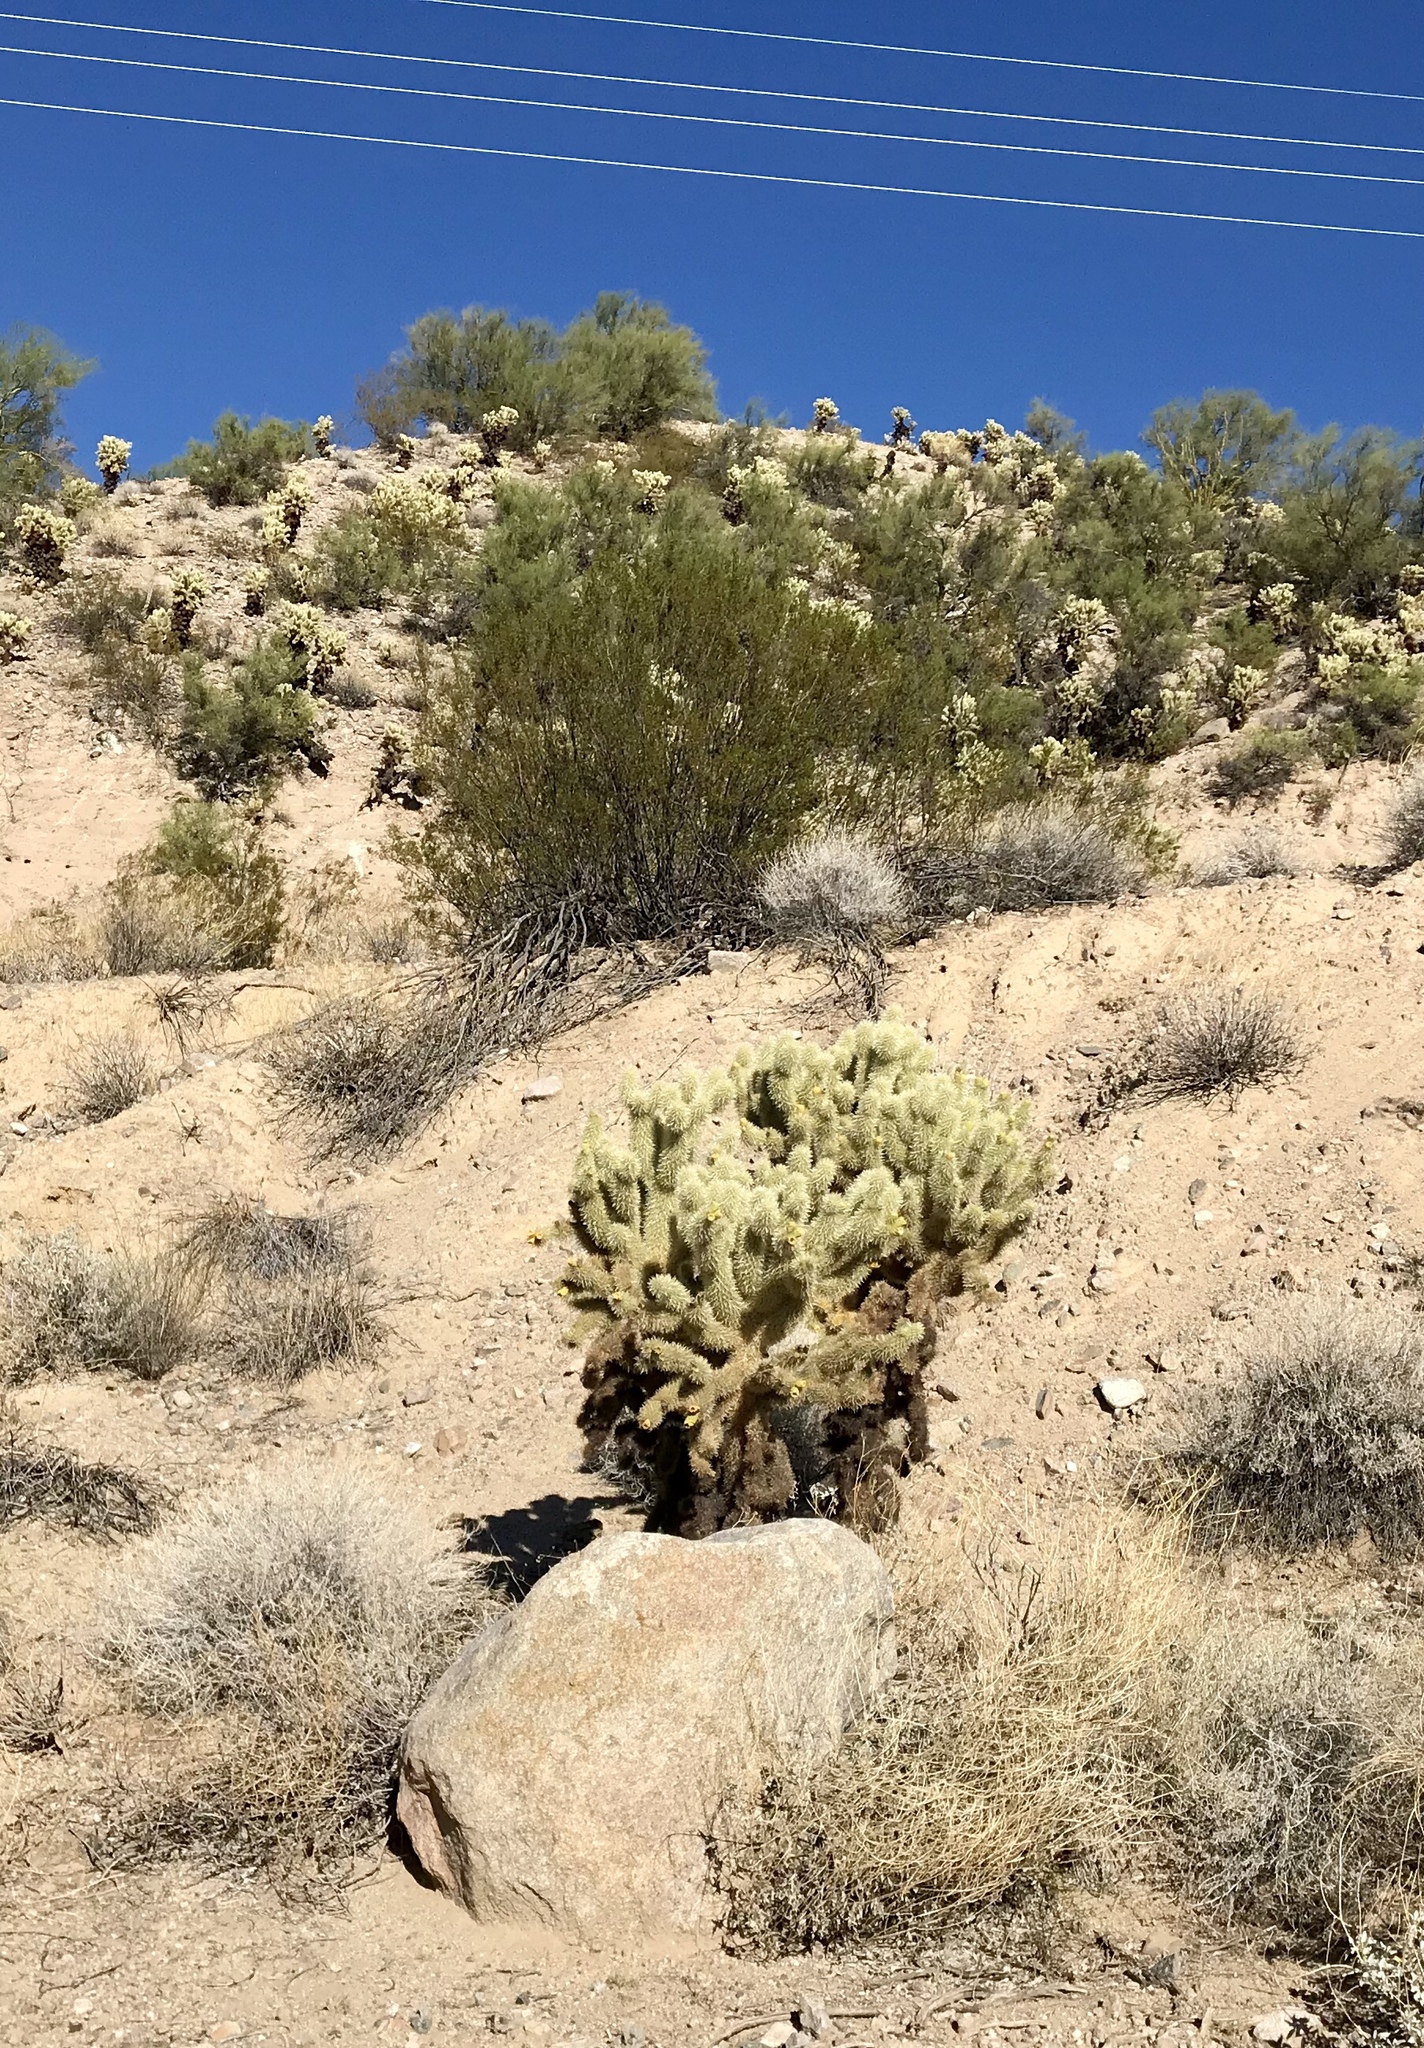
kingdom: Plantae
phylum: Tracheophyta
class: Magnoliopsida
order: Caryophyllales
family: Cactaceae
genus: Cylindropuntia
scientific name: Cylindropuntia fosbergii
